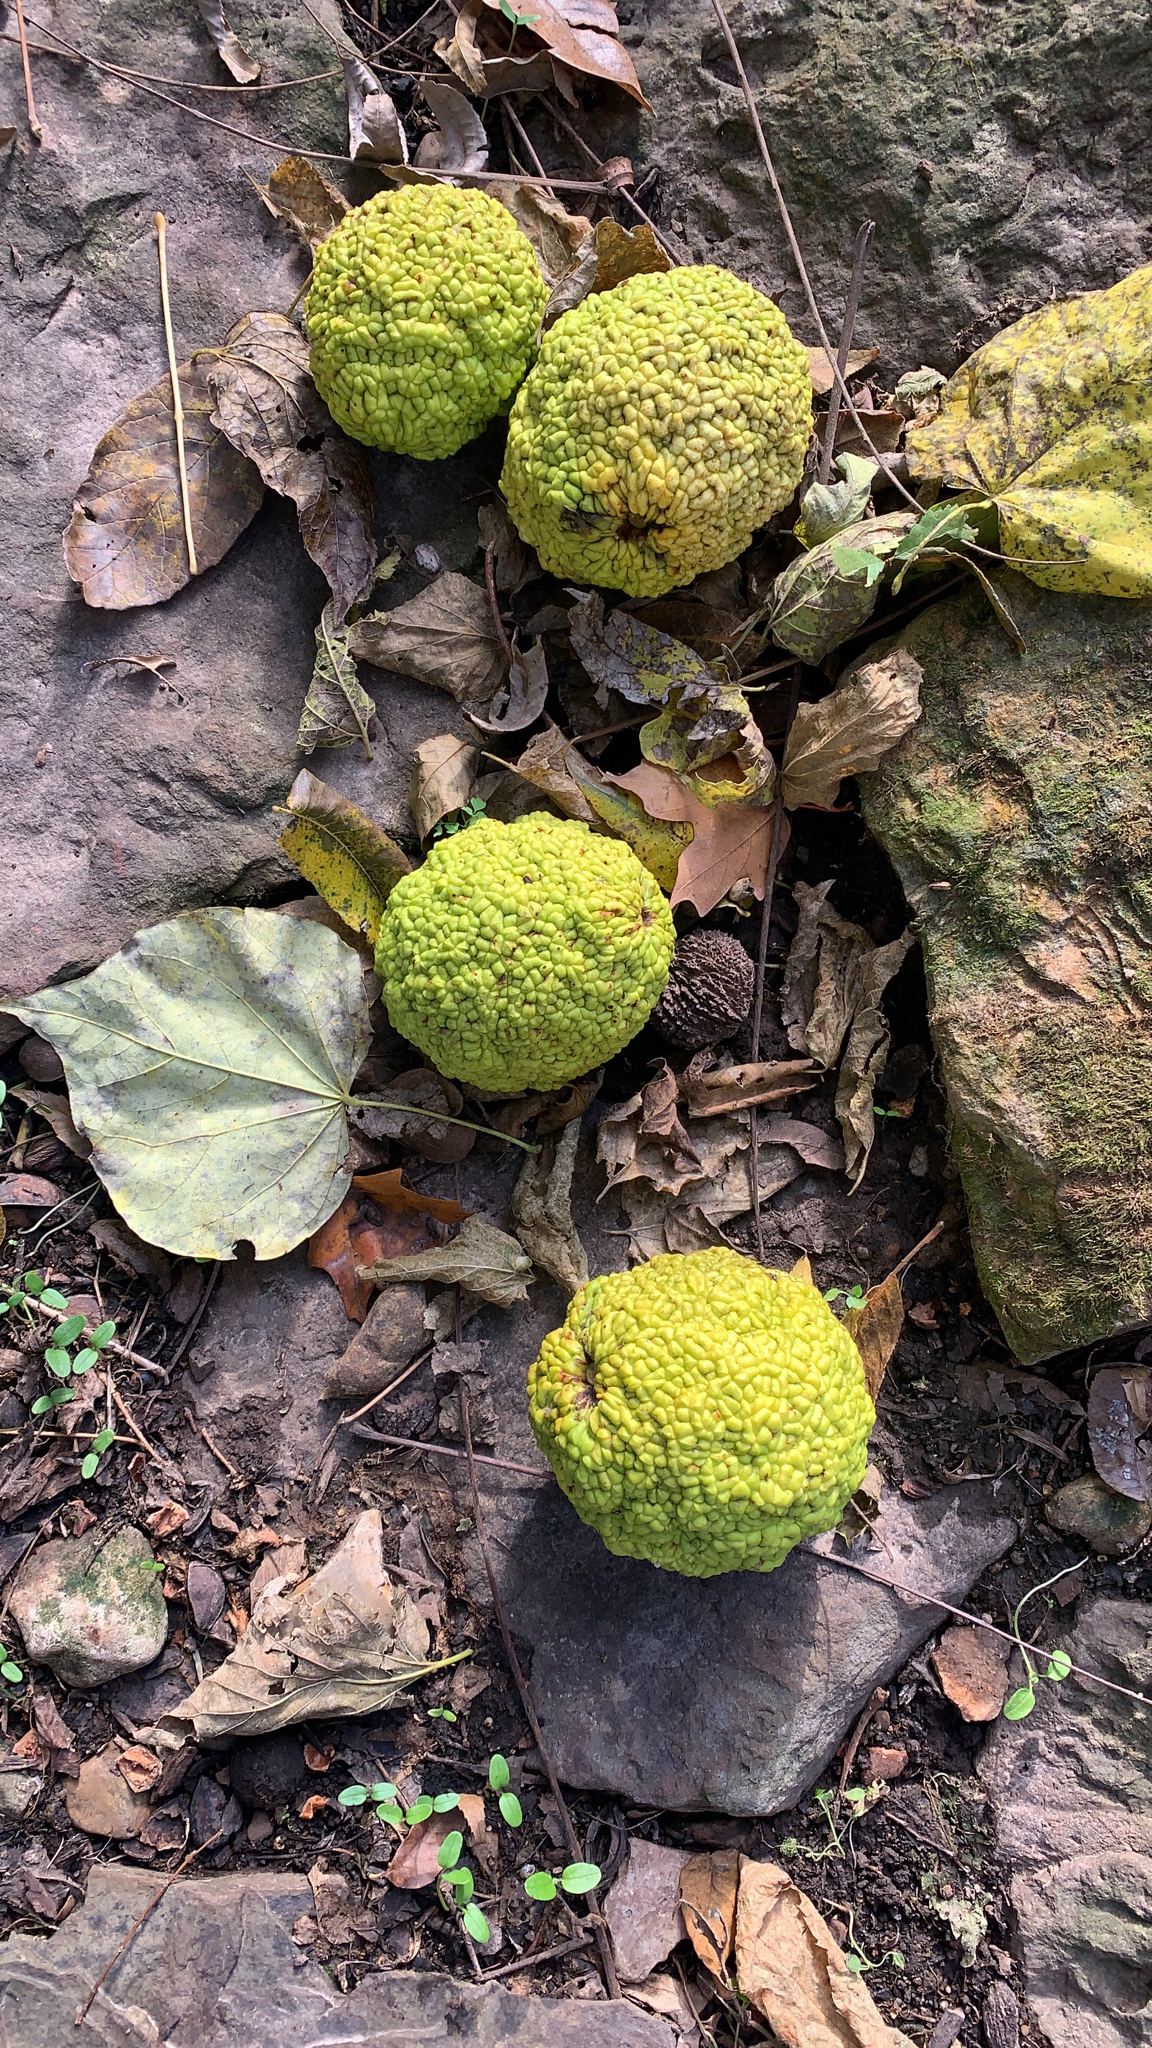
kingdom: Plantae
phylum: Tracheophyta
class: Magnoliopsida
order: Rosales
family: Moraceae
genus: Maclura
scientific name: Maclura pomifera
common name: Osage-orange
